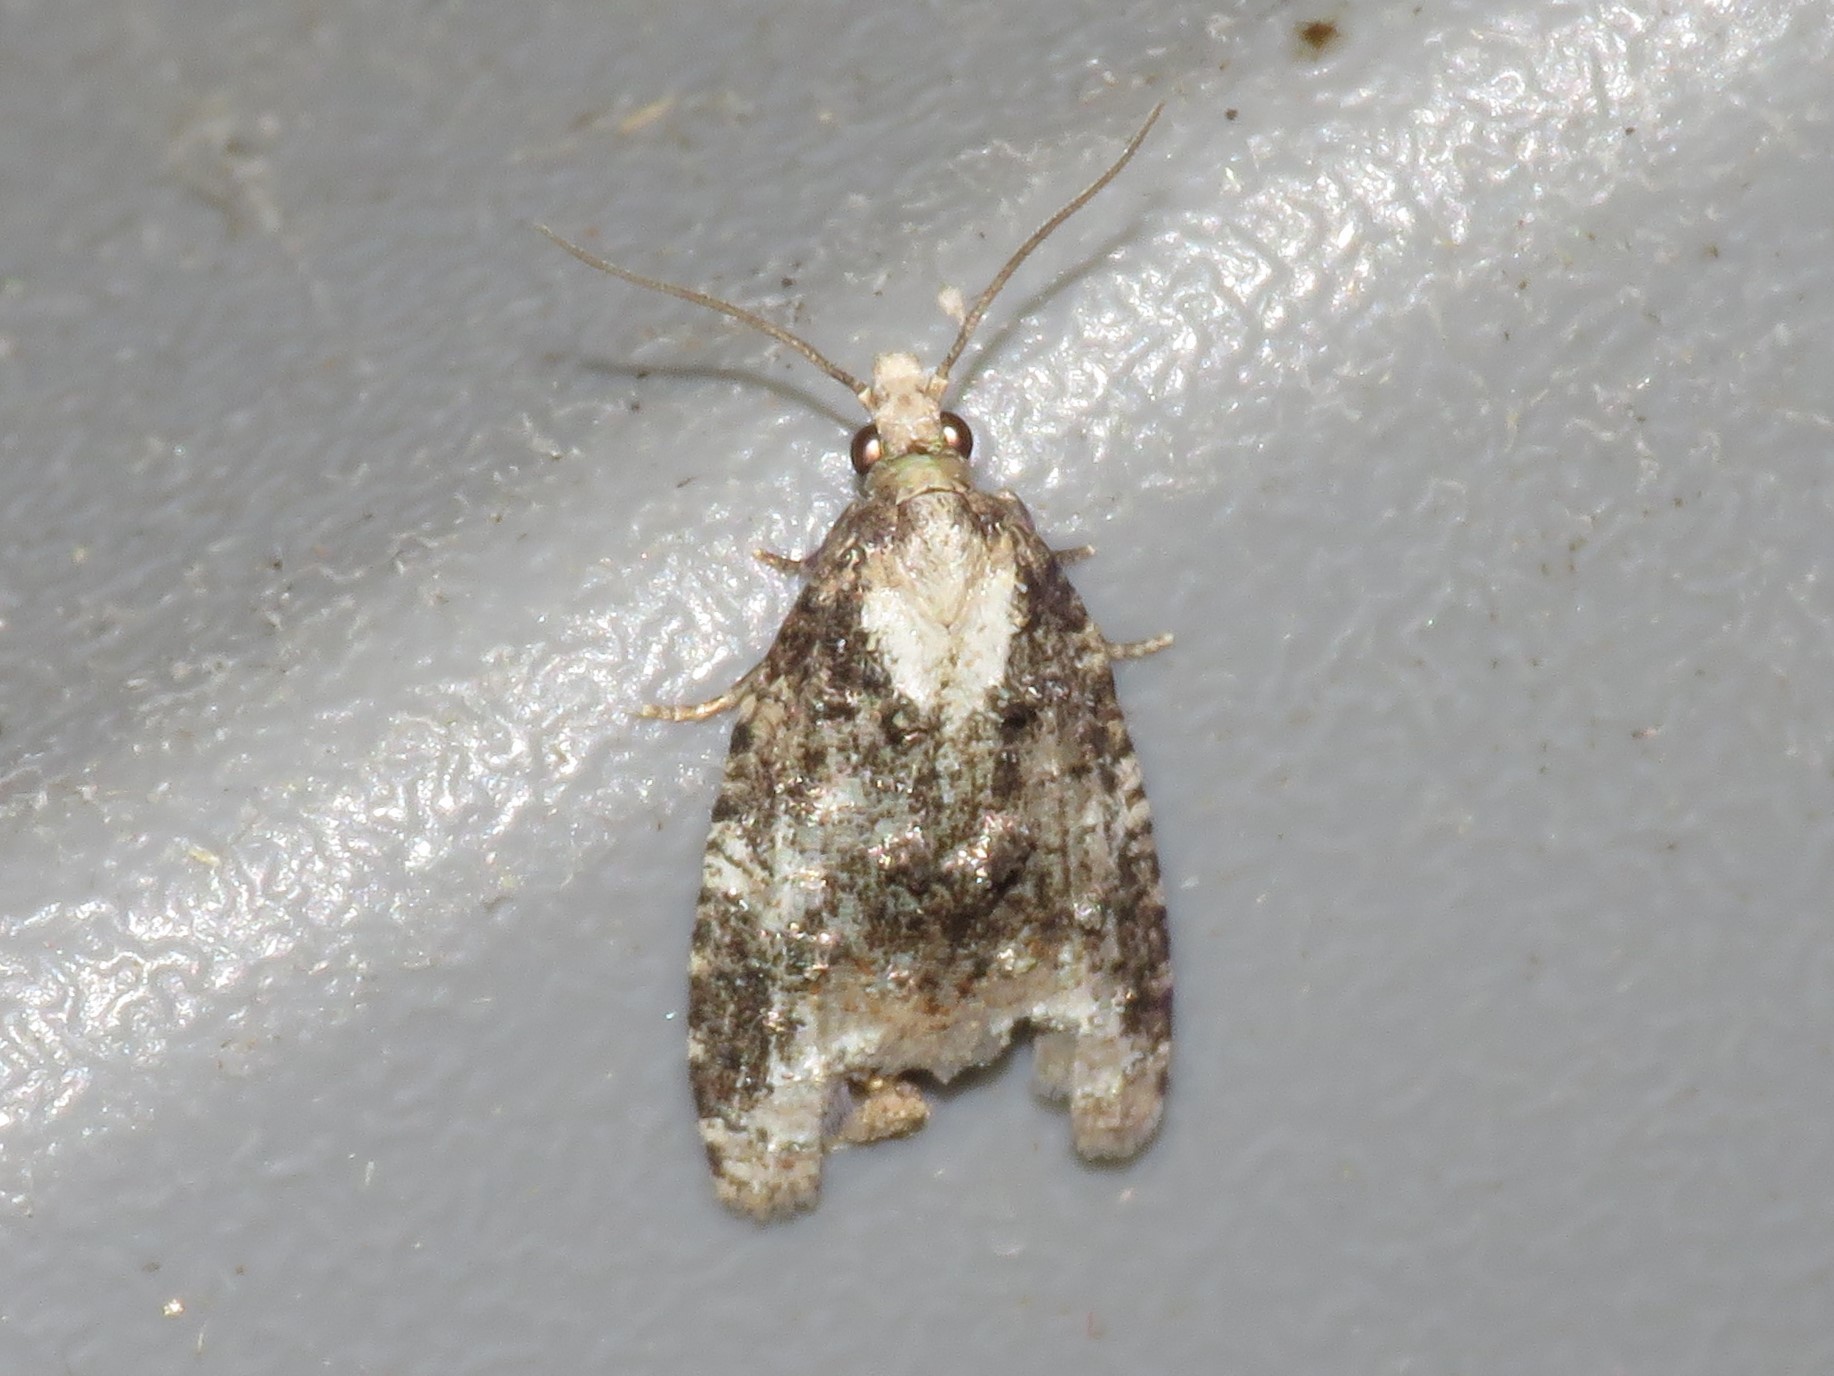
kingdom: Animalia
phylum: Arthropoda
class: Insecta
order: Lepidoptera
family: Tortricidae
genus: Platynota
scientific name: Platynota exasperatana
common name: Exasperating platynota moth
